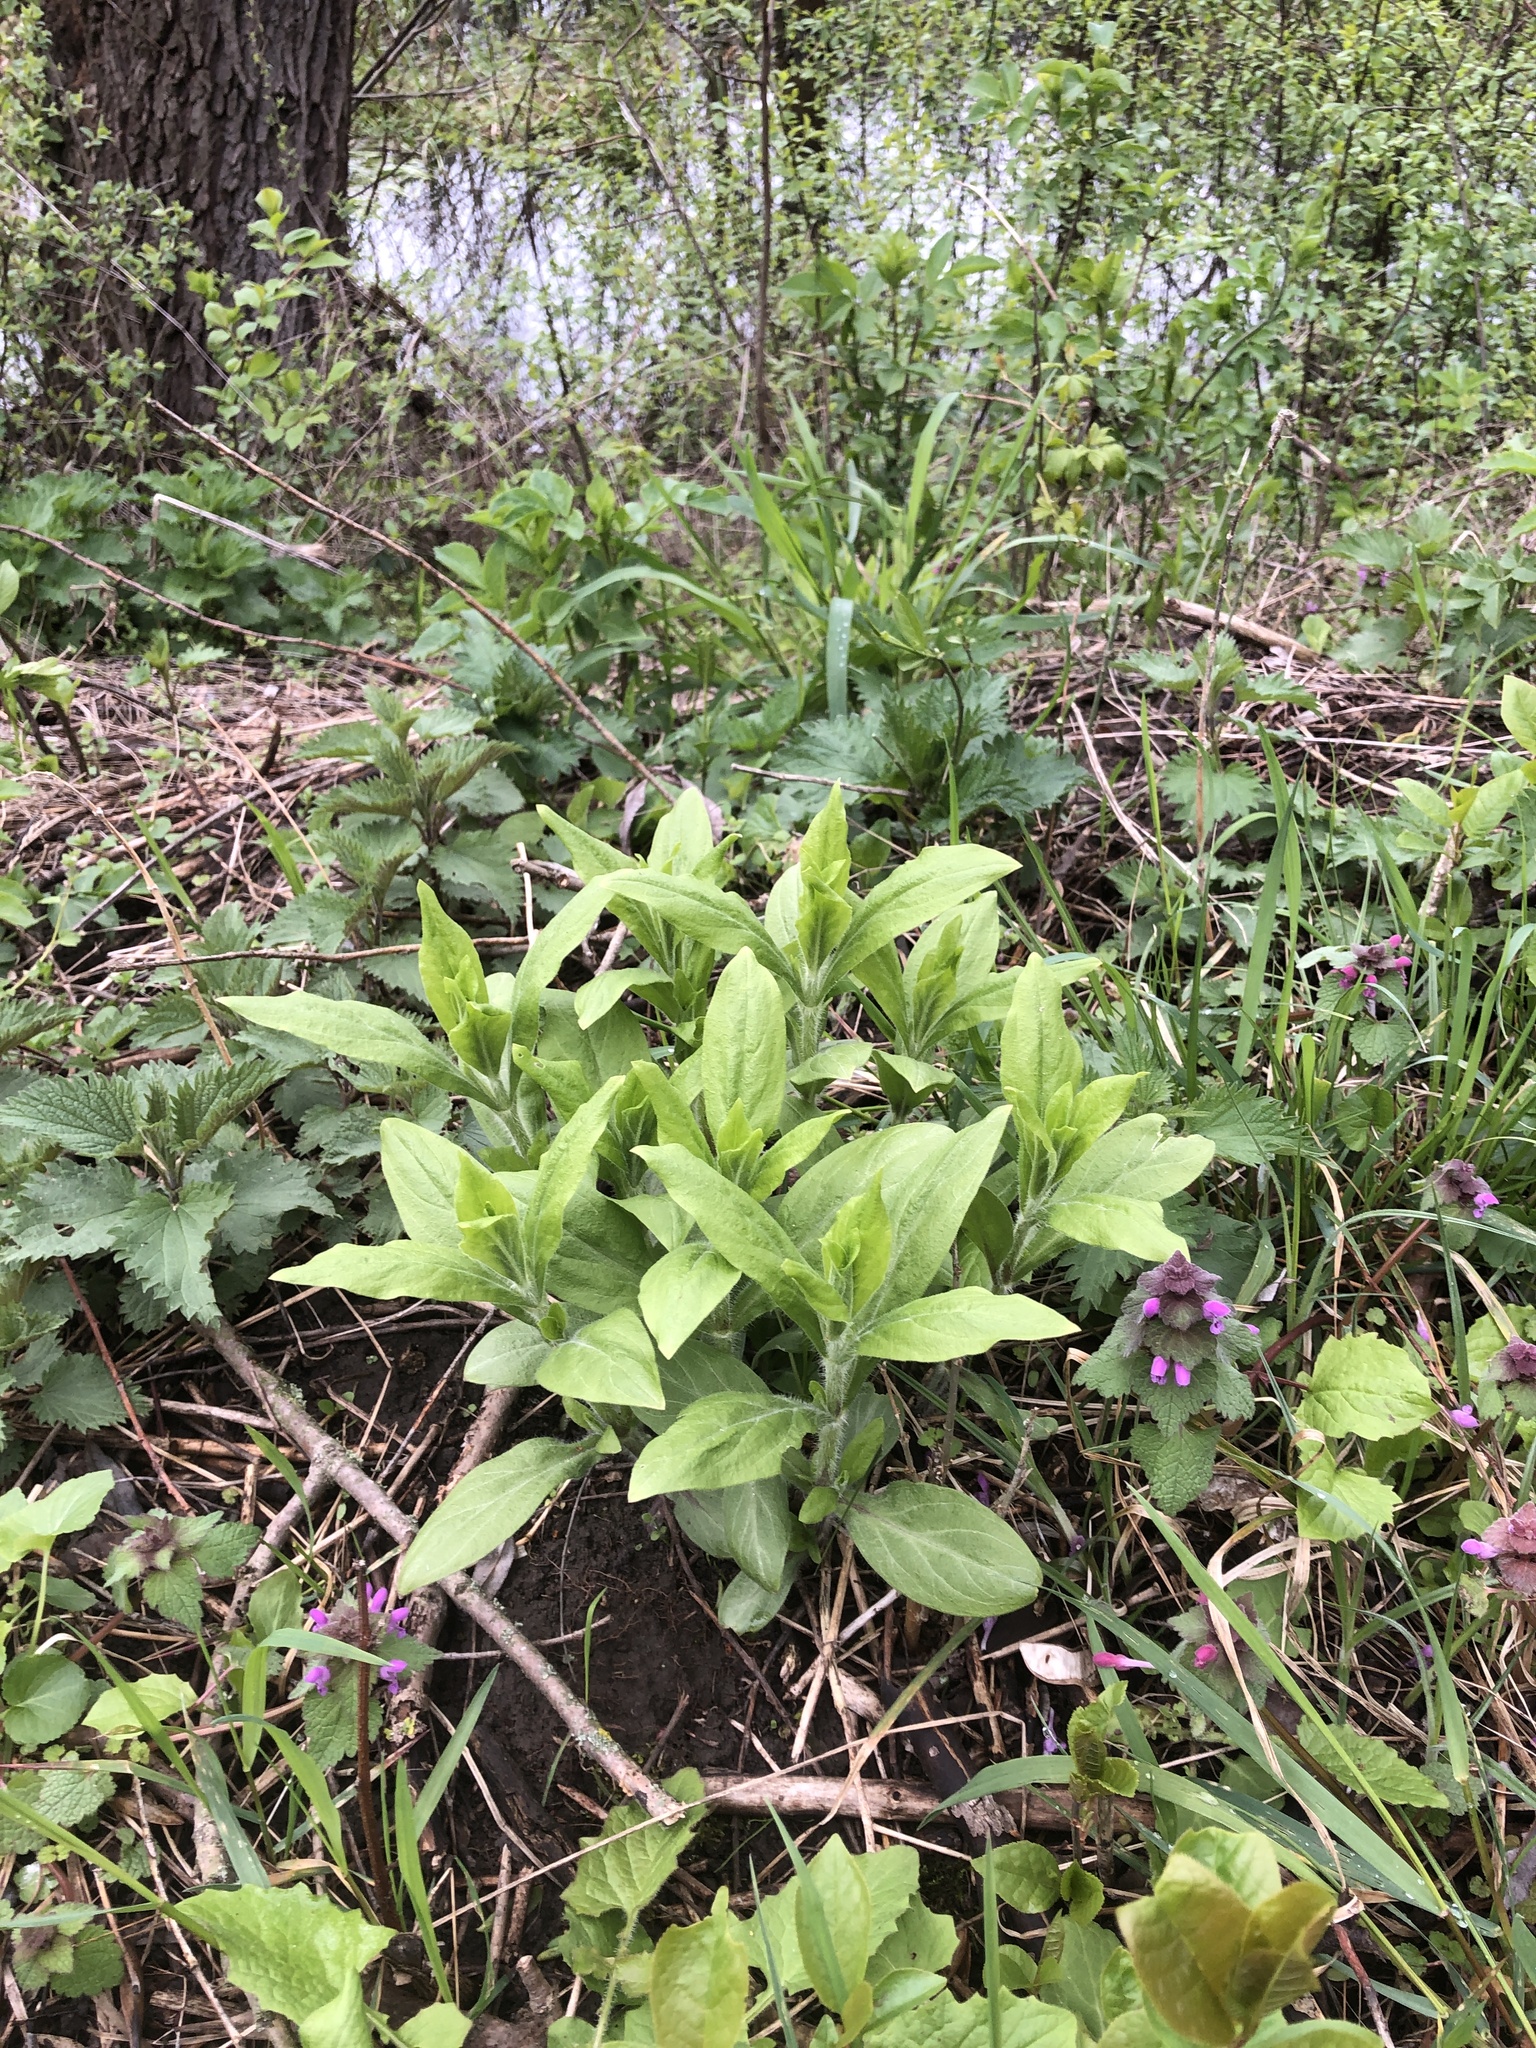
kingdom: Plantae
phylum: Tracheophyta
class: Magnoliopsida
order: Caryophyllales
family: Caryophyllaceae
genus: Silene
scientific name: Silene latifolia
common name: White campion
